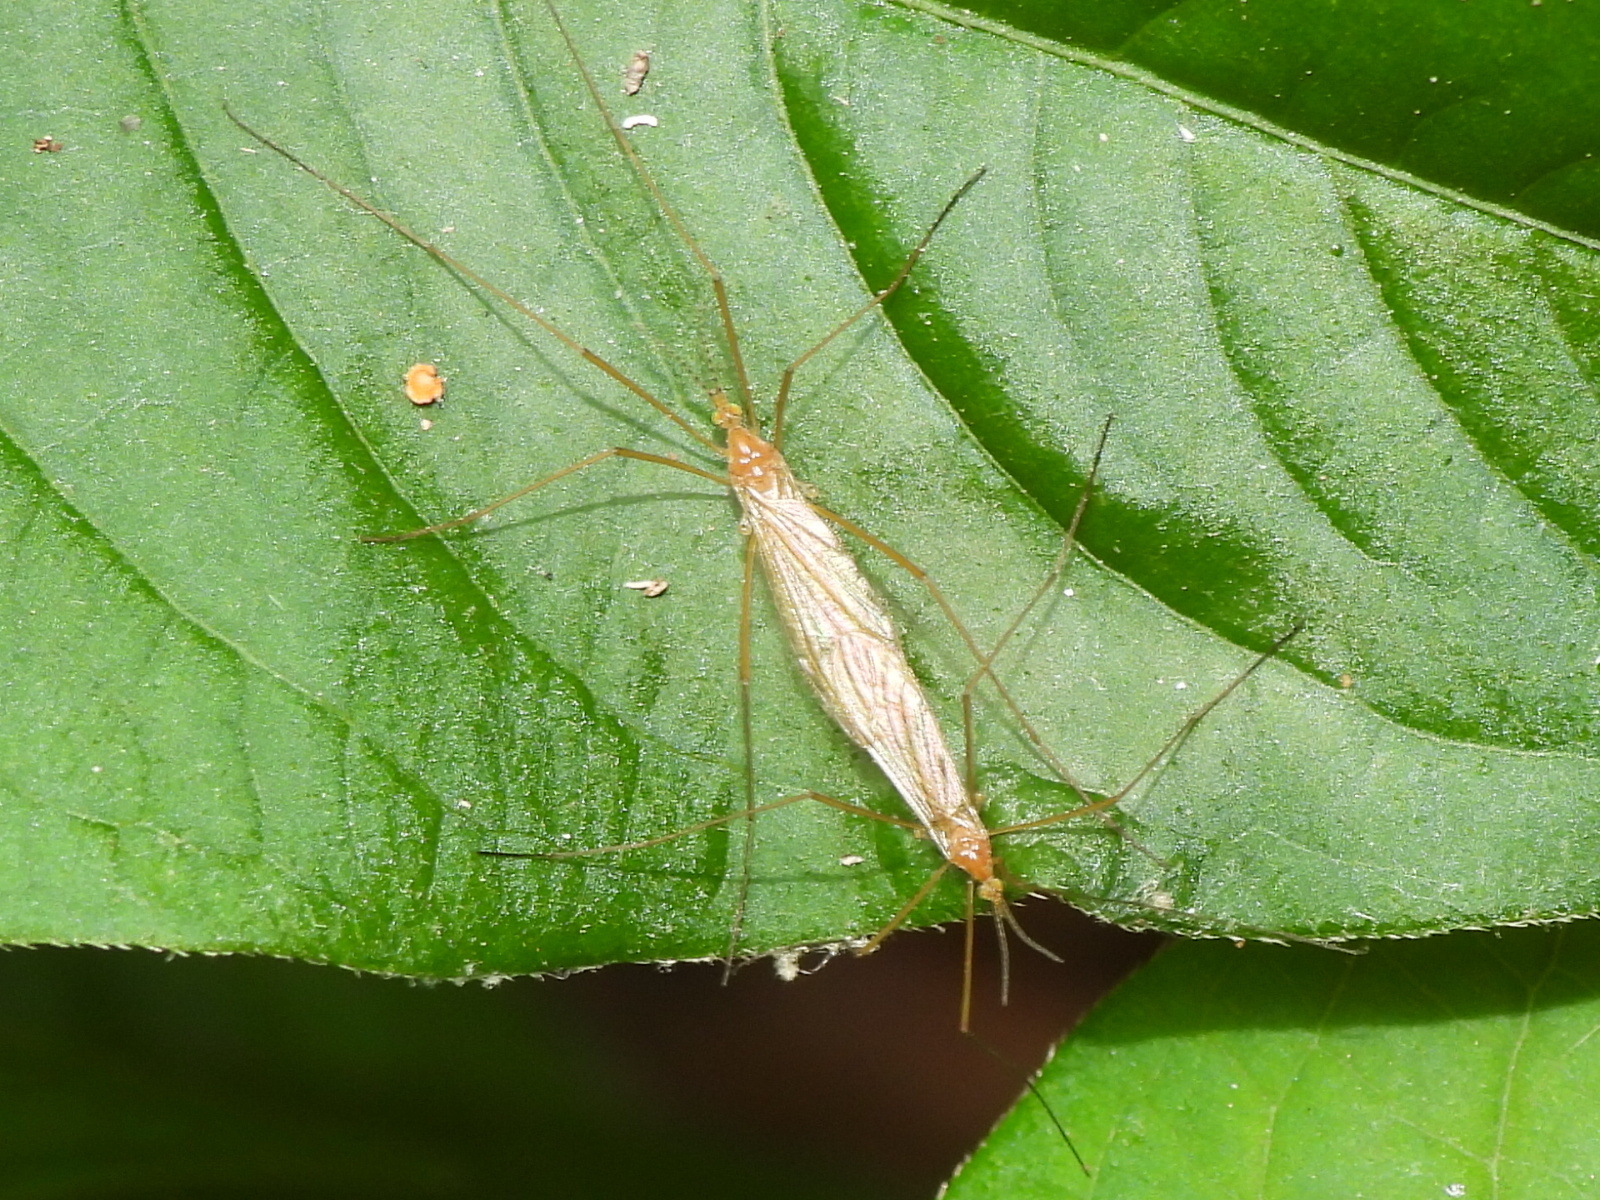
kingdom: Animalia
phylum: Arthropoda
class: Insecta
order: Diptera
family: Limoniidae
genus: Atarba
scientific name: Atarba picticornis
